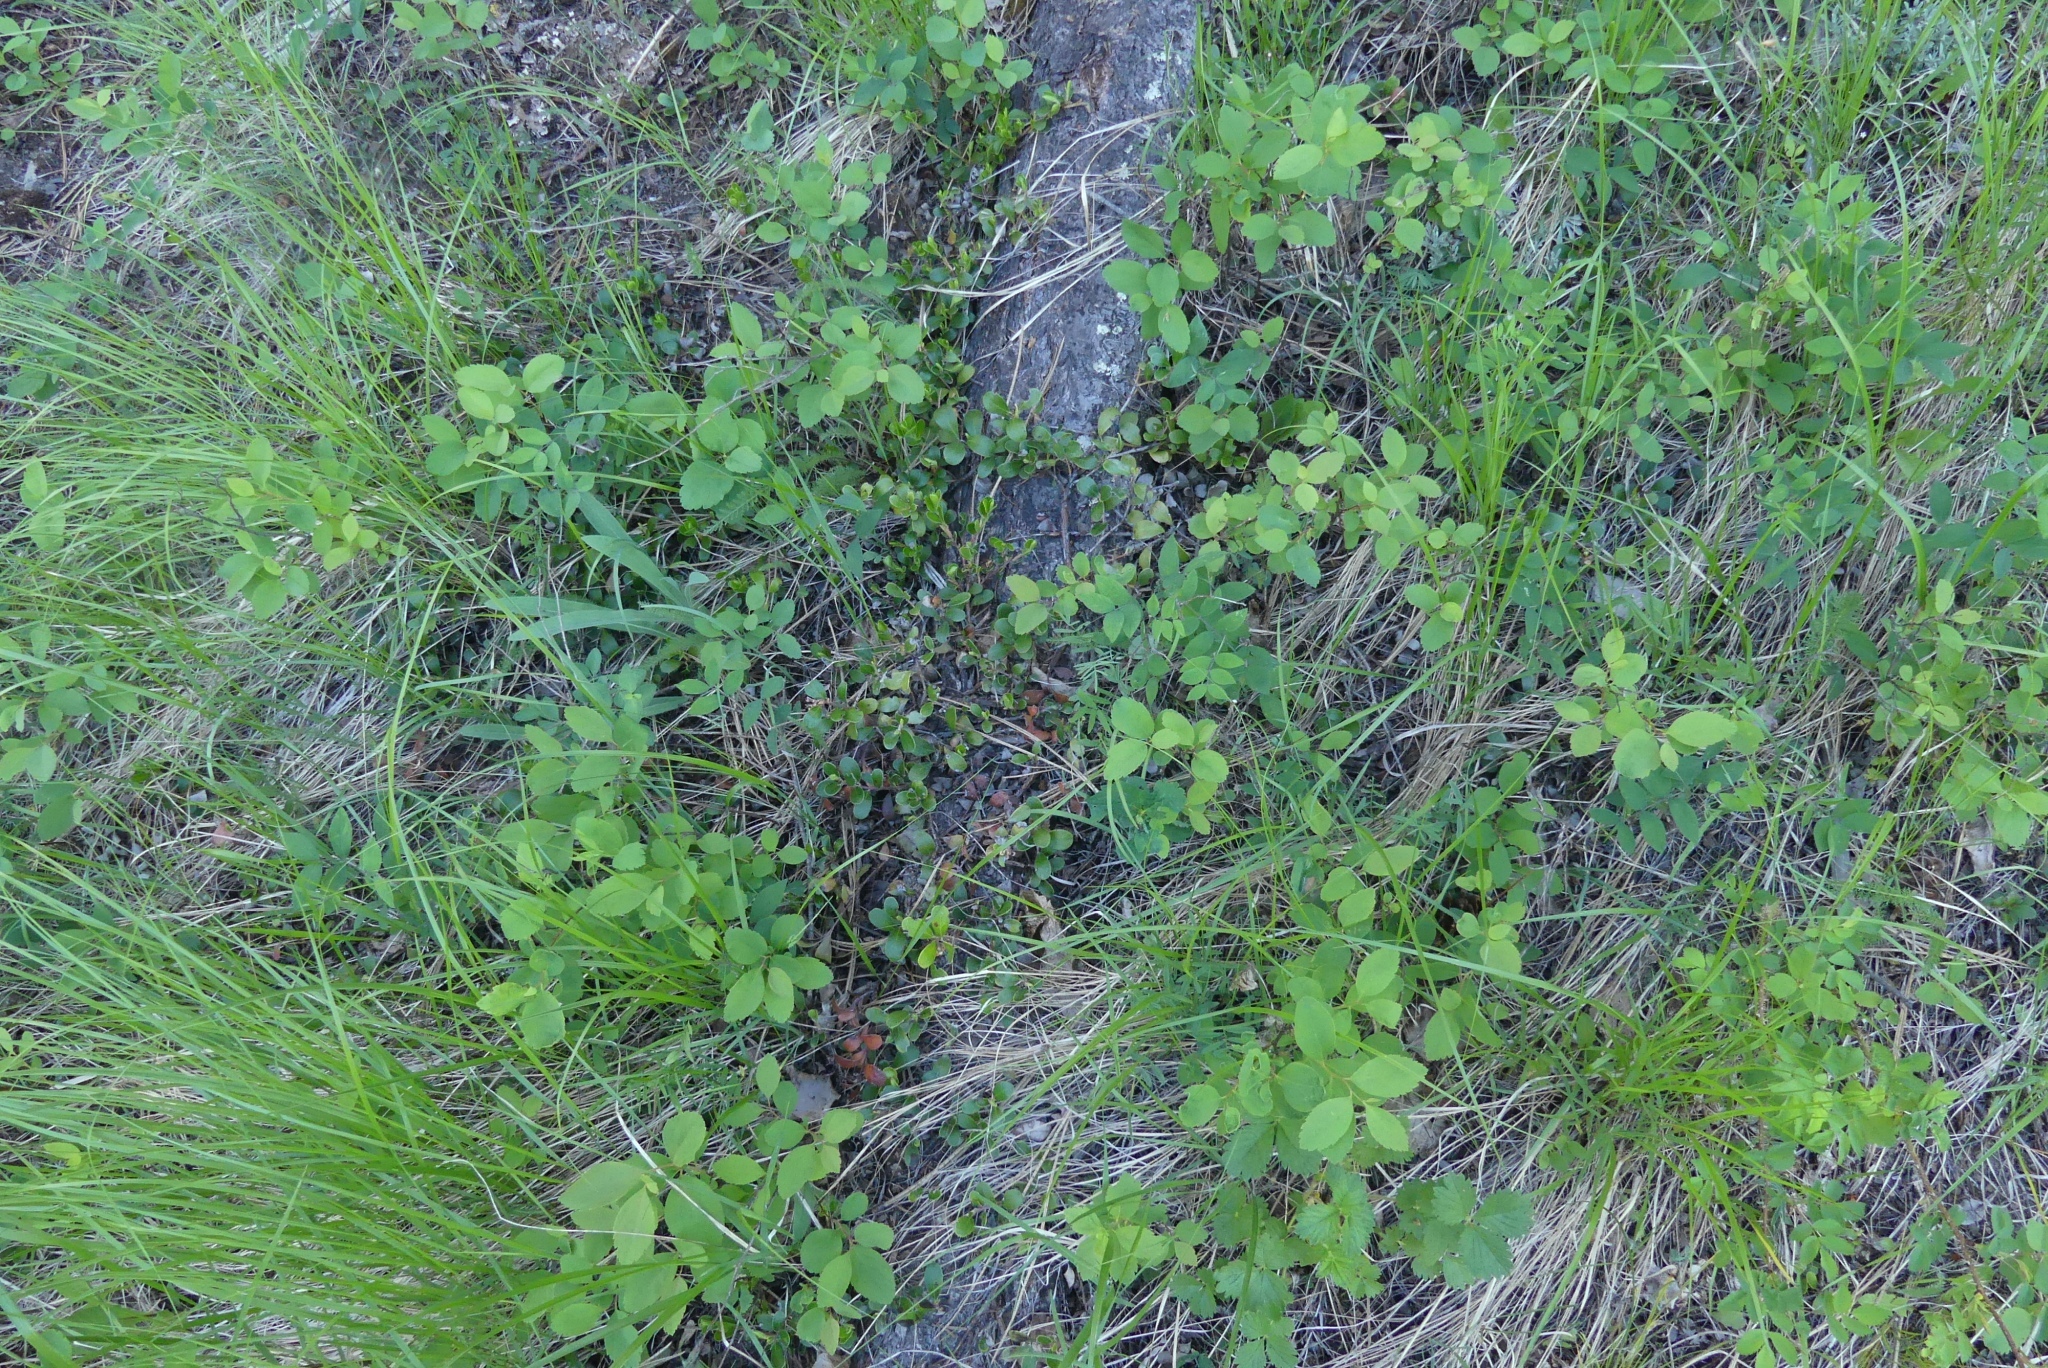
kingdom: Plantae
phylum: Tracheophyta
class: Magnoliopsida
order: Ericales
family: Ericaceae
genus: Arctostaphylos
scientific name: Arctostaphylos uva-ursi
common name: Bearberry
